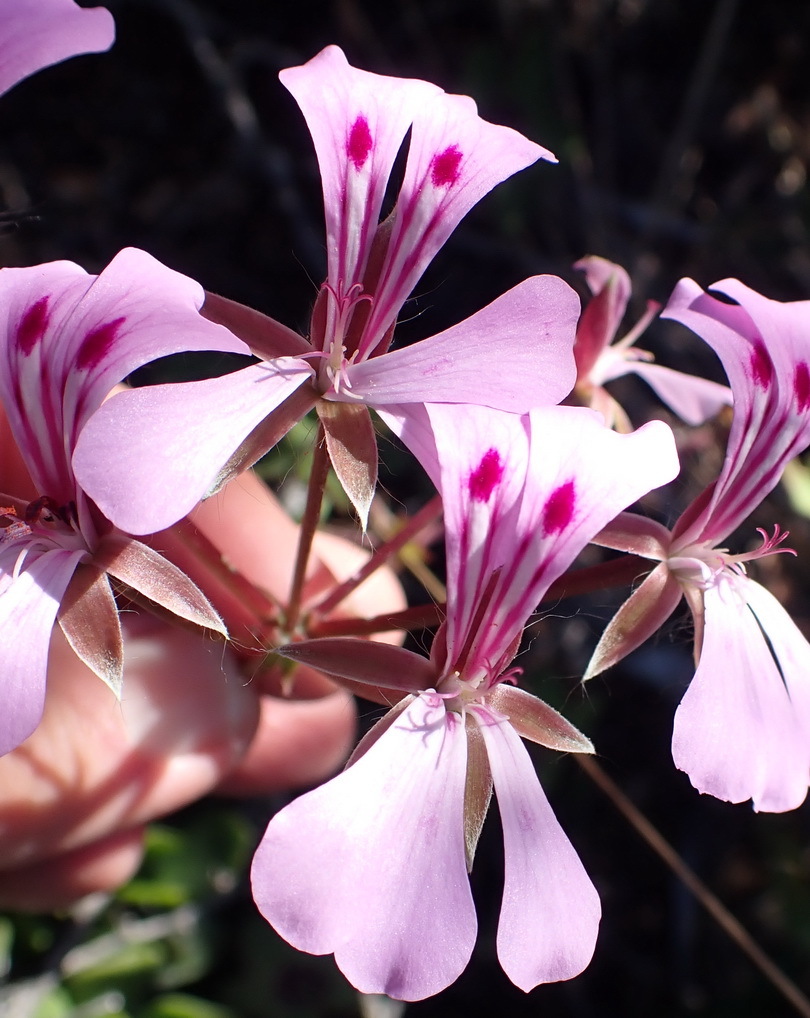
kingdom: Plantae
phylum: Tracheophyta
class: Magnoliopsida
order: Geraniales
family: Geraniaceae
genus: Pelargonium
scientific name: Pelargonium peltatum
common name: Ivyleaf geranium
